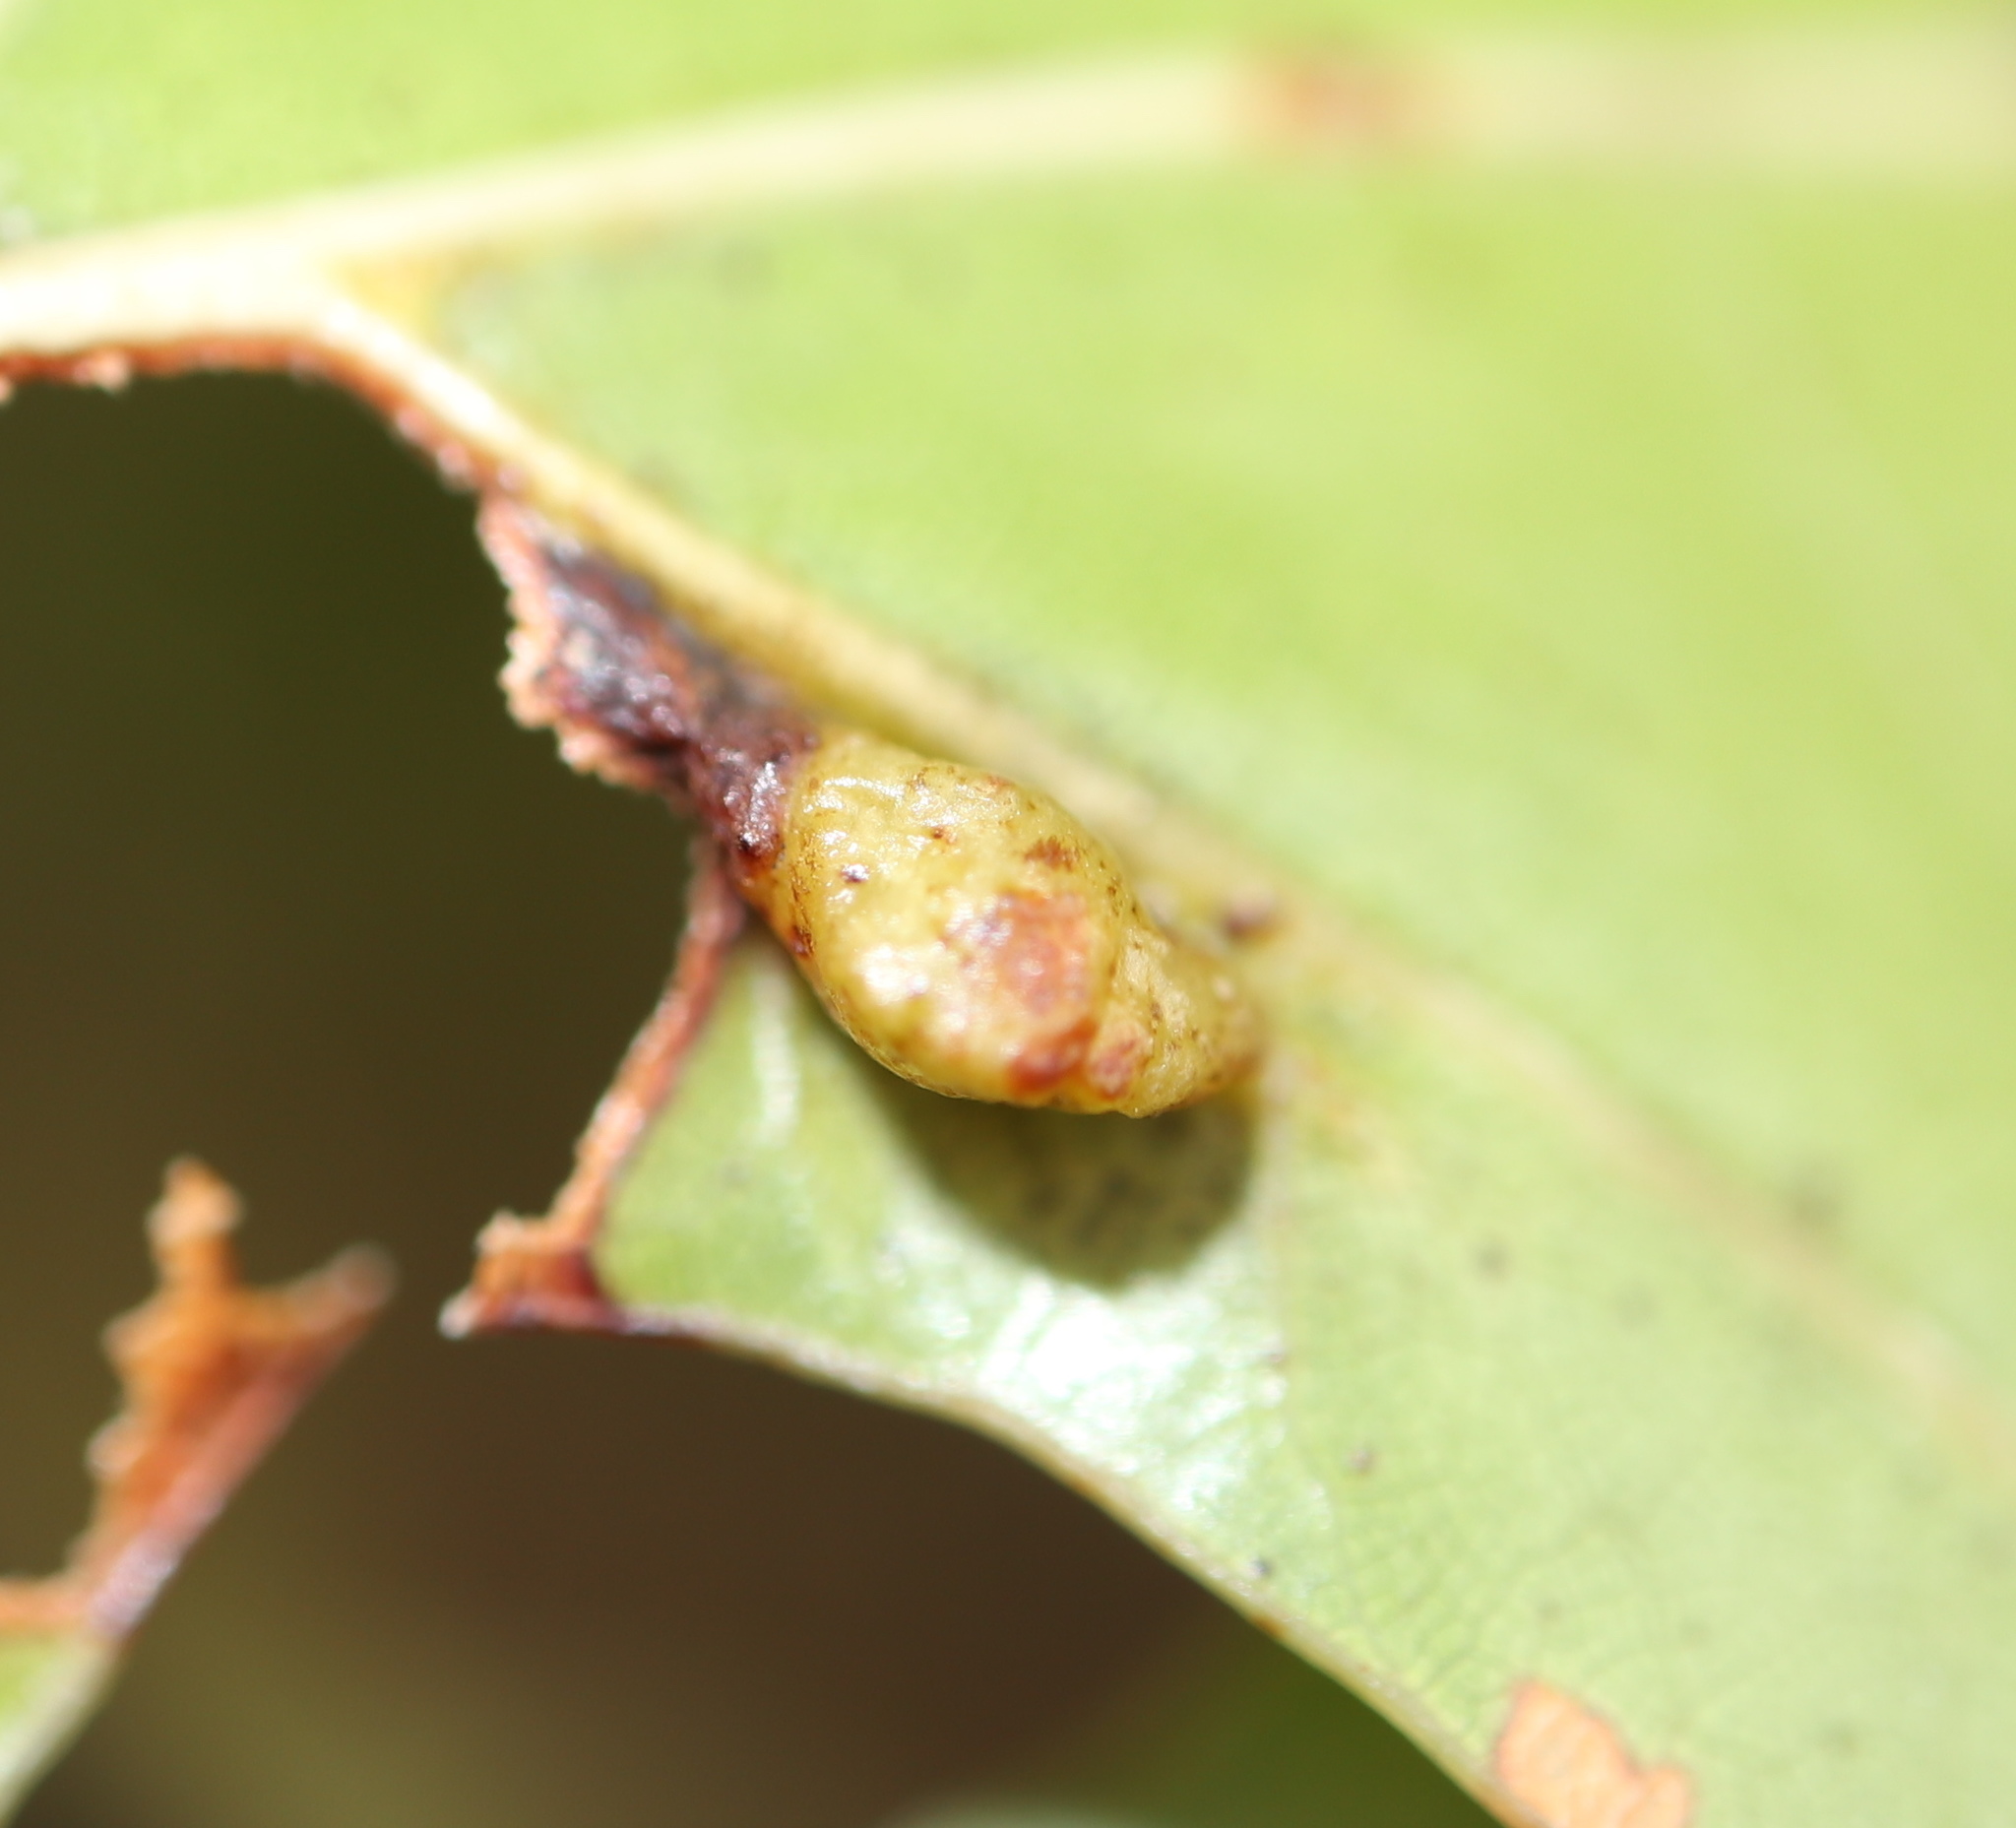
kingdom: Animalia
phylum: Arthropoda
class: Insecta
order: Diptera
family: Cecidomyiidae
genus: Macrodiplosis
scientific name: Macrodiplosis majalis
